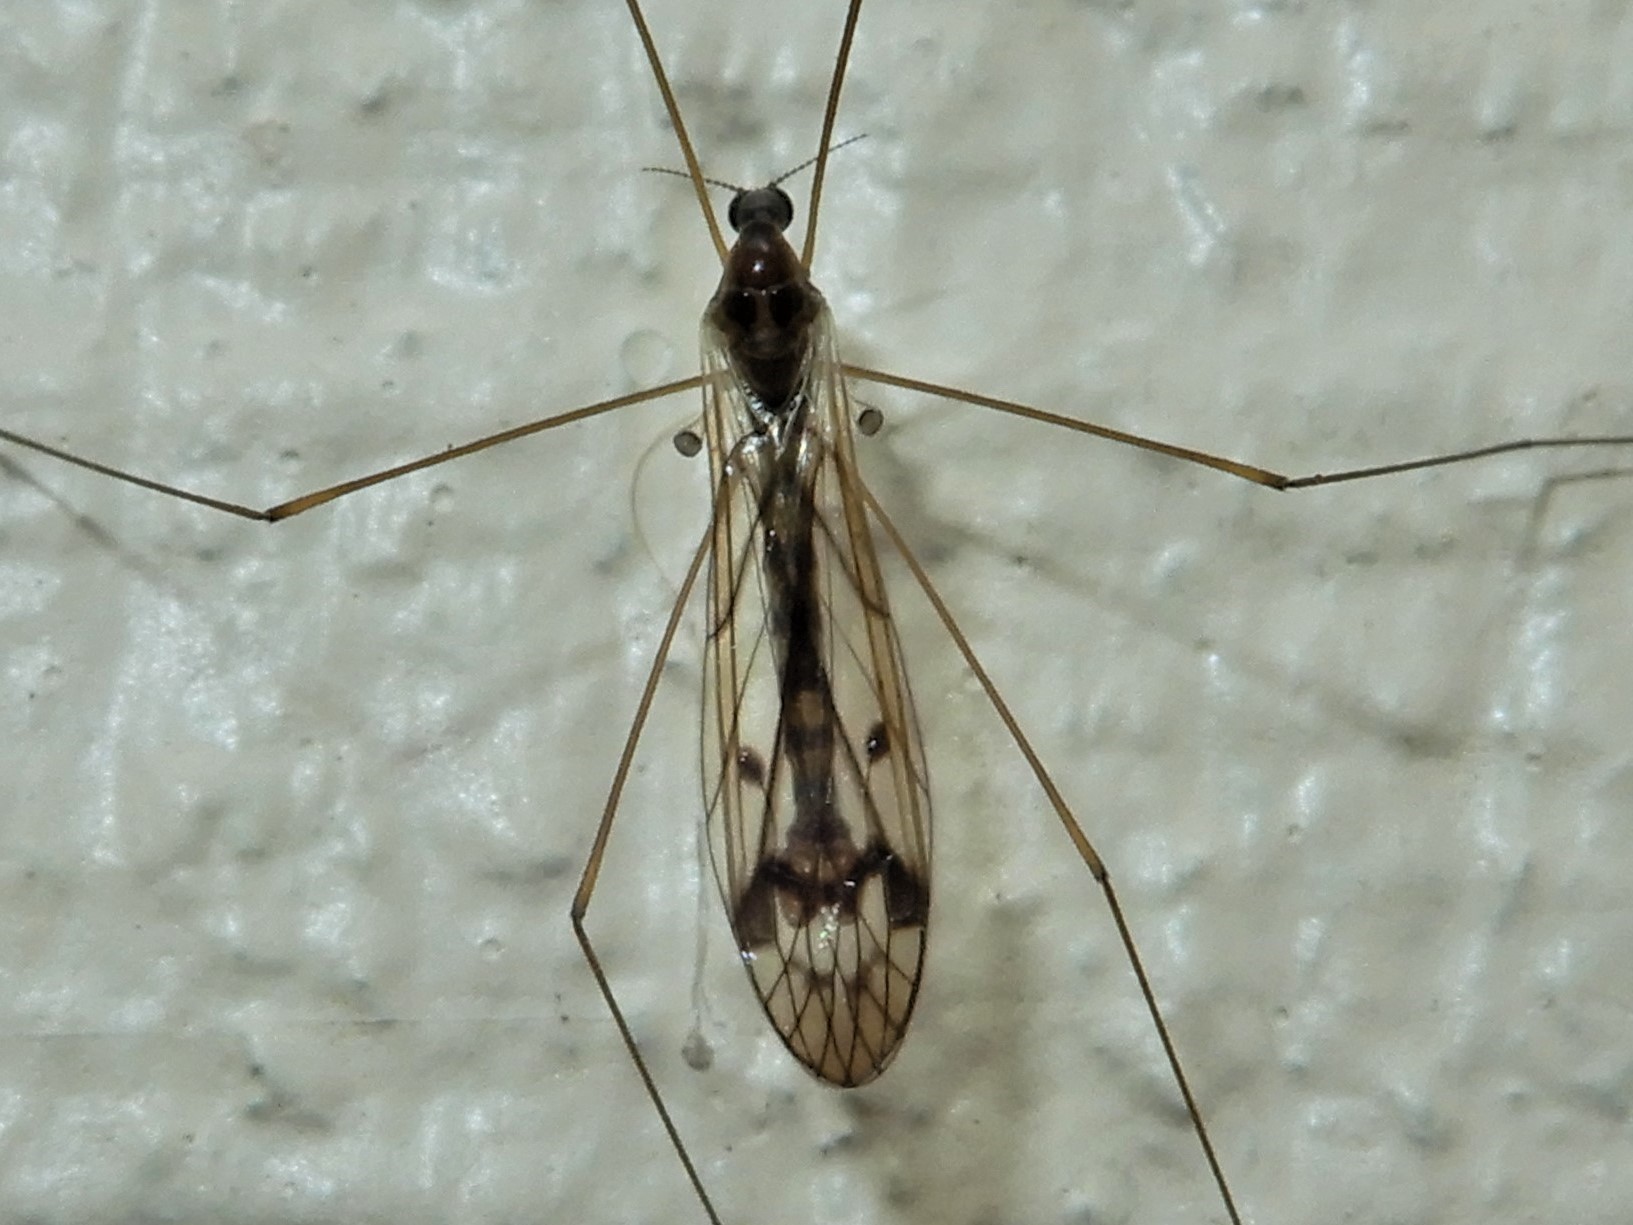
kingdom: Animalia
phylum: Arthropoda
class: Insecta
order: Diptera
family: Limoniidae
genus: Dicranomyia
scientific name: Dicranomyia crassipes
